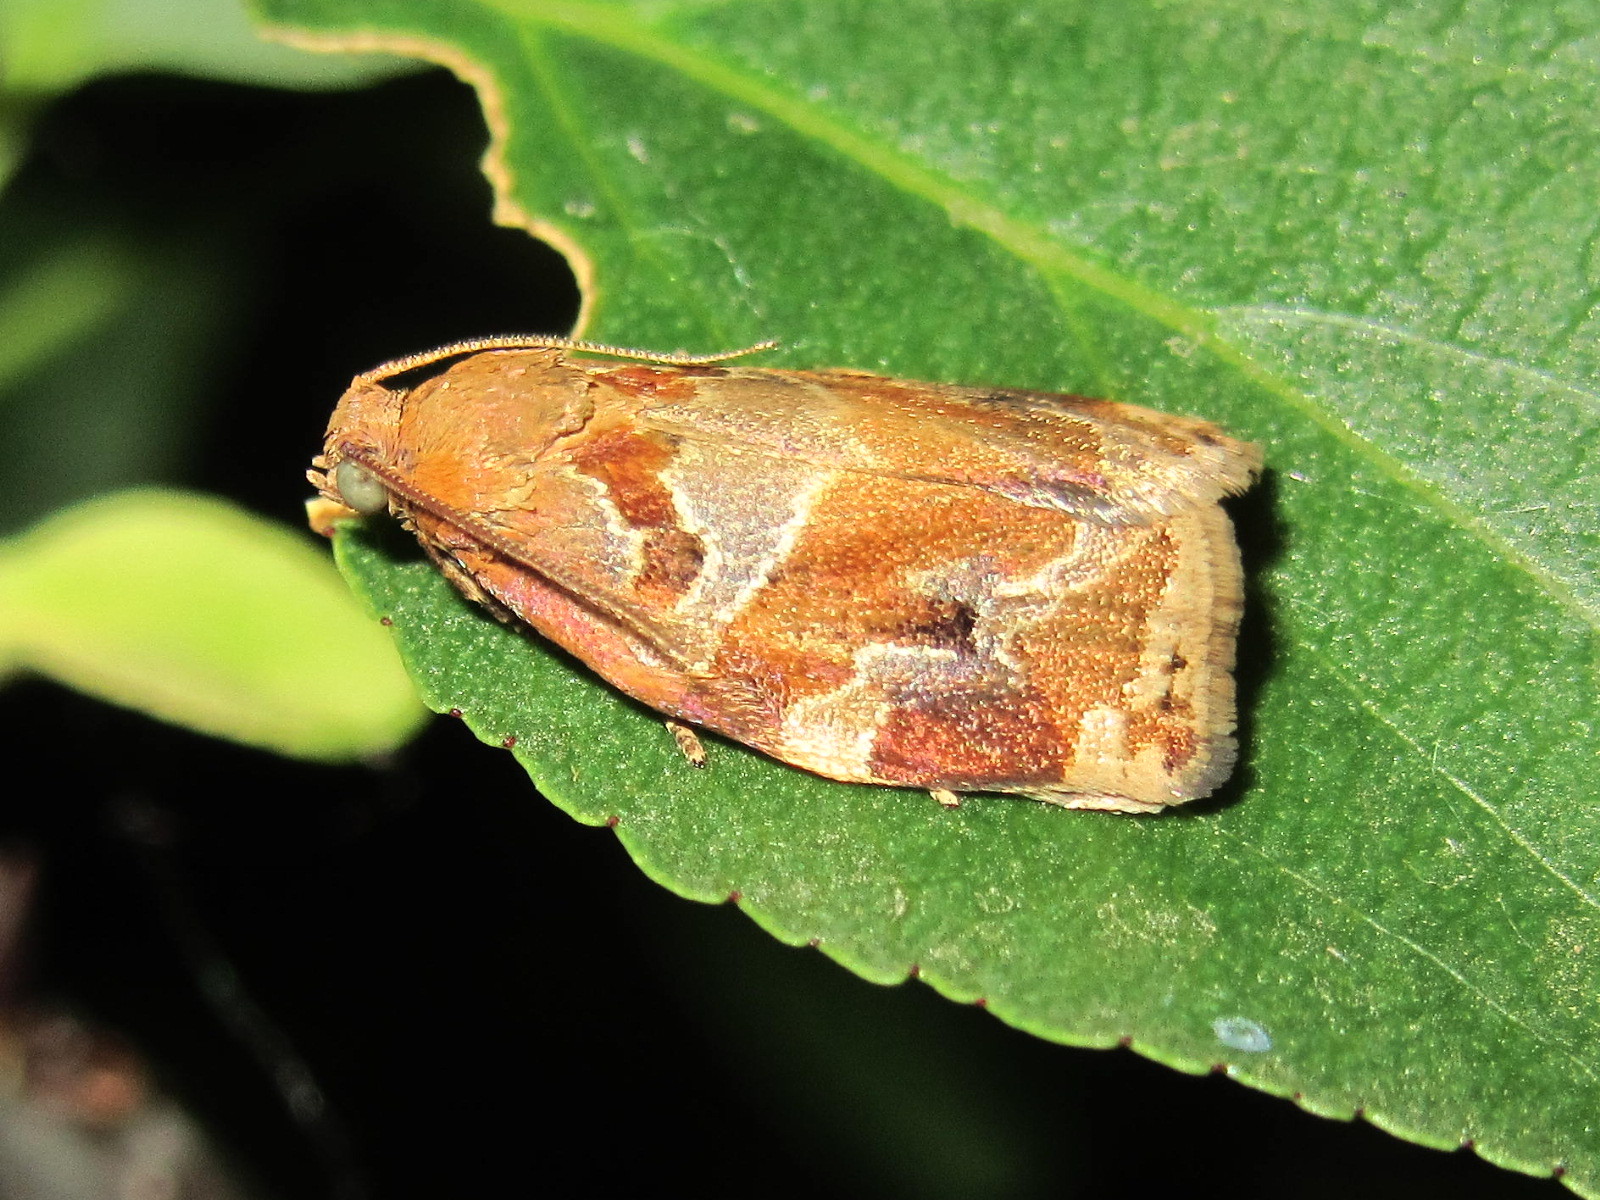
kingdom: Animalia
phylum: Arthropoda
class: Insecta
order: Lepidoptera
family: Tortricidae
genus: Archips
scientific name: Archips xylosteana
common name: Variegated golden tortrix
